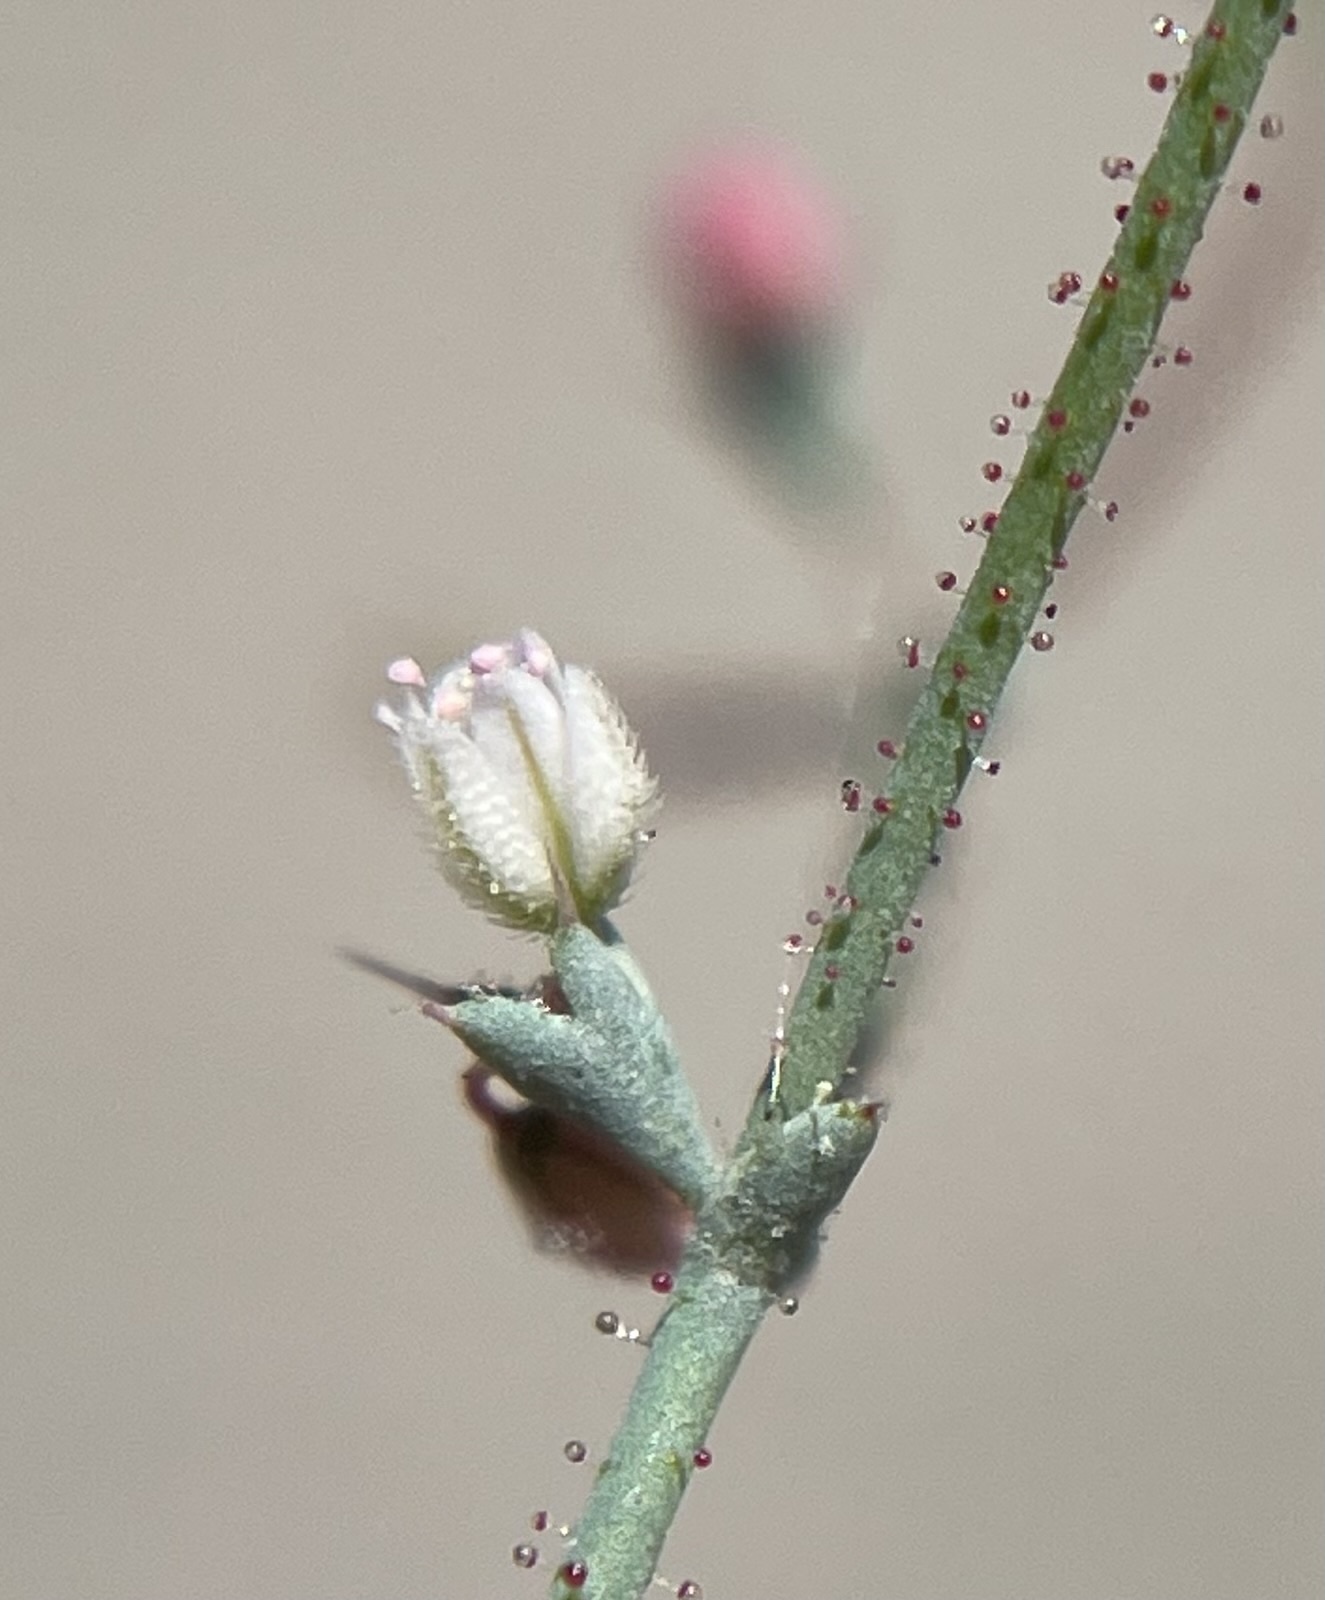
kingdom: Plantae
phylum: Tracheophyta
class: Magnoliopsida
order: Caryophyllales
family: Polygonaceae
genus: Oxytheca
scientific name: Oxytheca dendroidea
